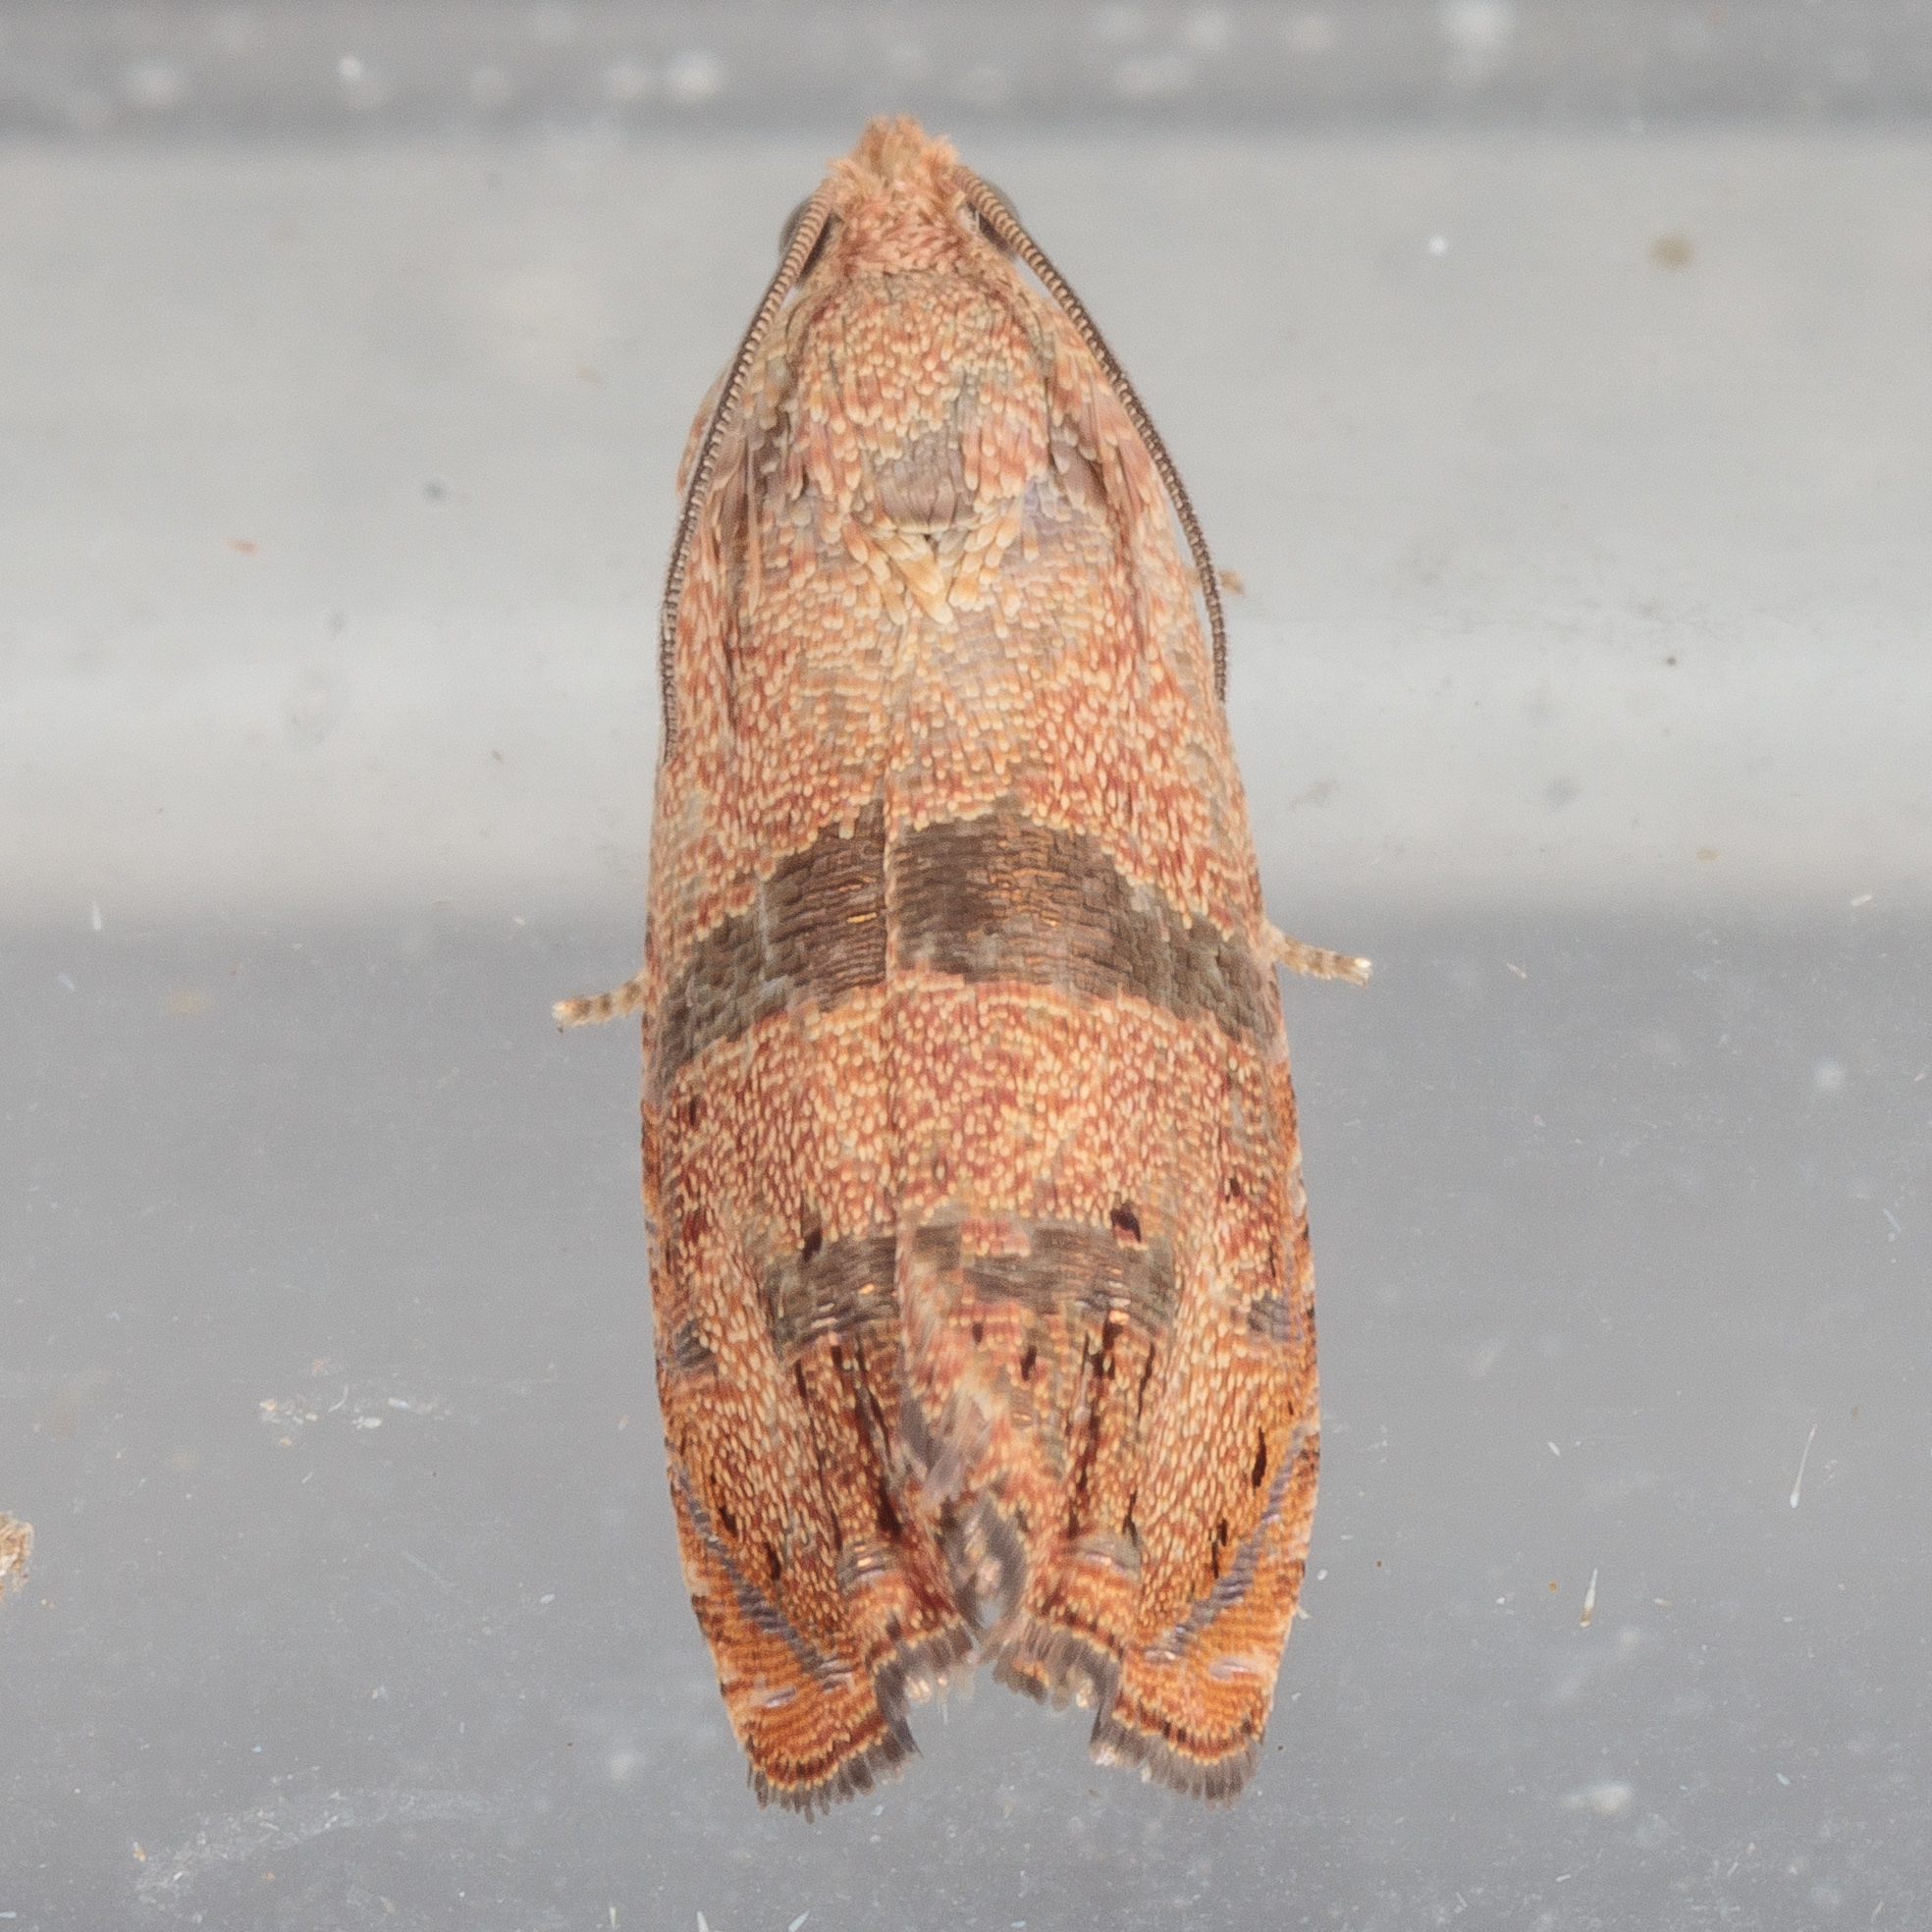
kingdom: Animalia
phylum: Arthropoda
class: Insecta
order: Lepidoptera
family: Tortricidae
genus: Cydia
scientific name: Cydia latiferreana
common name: Filbertworm moth
